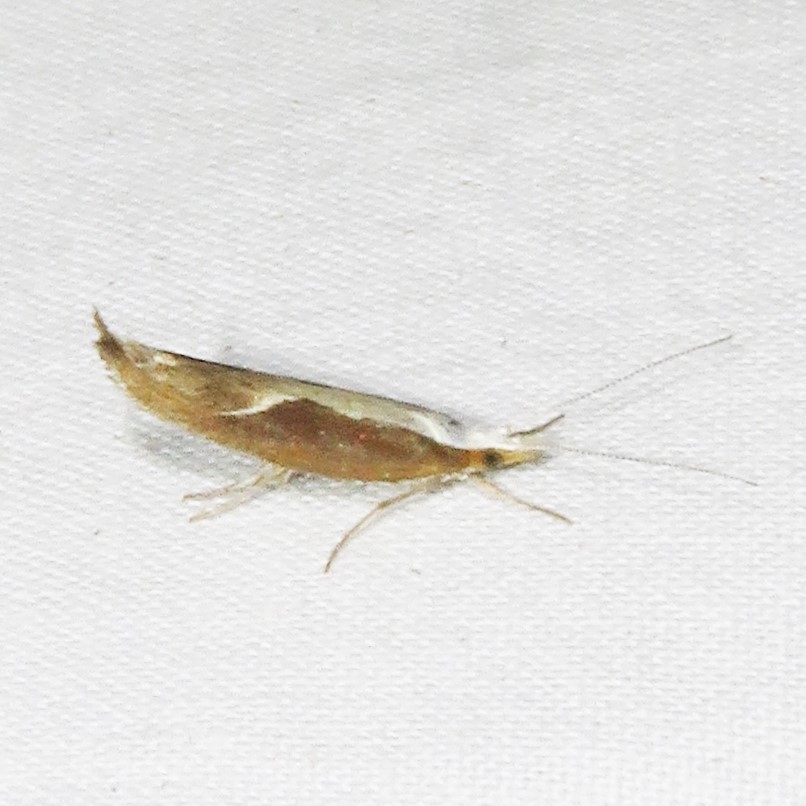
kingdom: Animalia
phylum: Arthropoda
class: Insecta
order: Lepidoptera
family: Ypsolophidae
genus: Ypsolopha
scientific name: Ypsolopha dentella
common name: Honeysuckle moth
